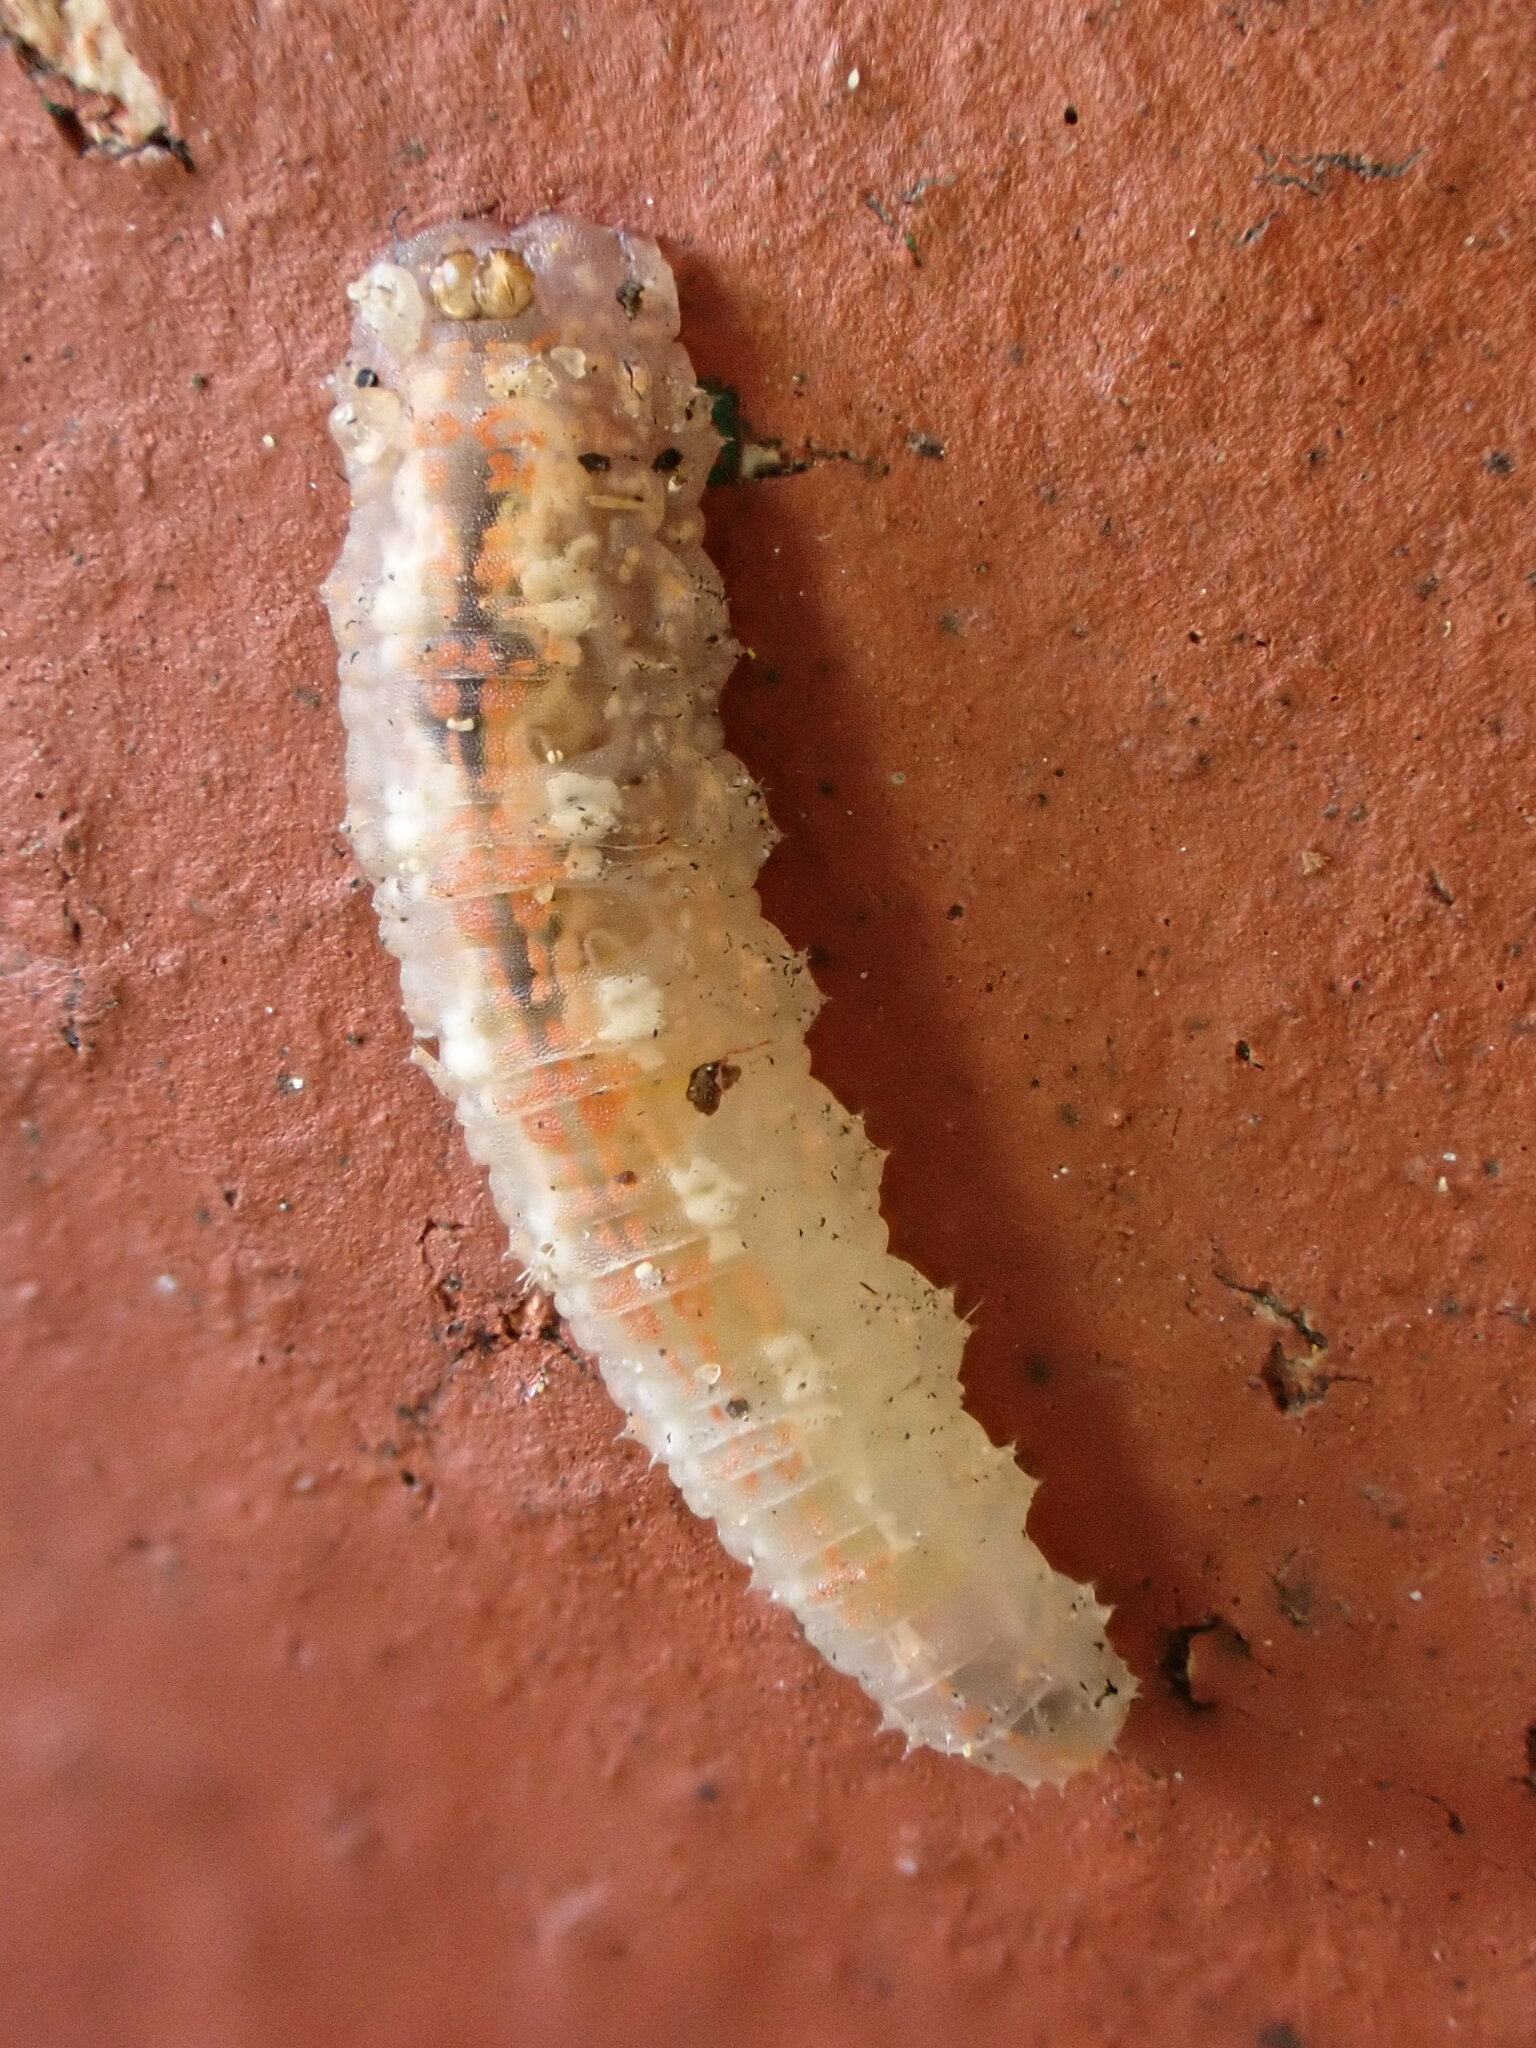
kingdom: Animalia
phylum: Arthropoda
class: Insecta
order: Diptera
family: Syrphidae
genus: Syrphus
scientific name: Syrphus
